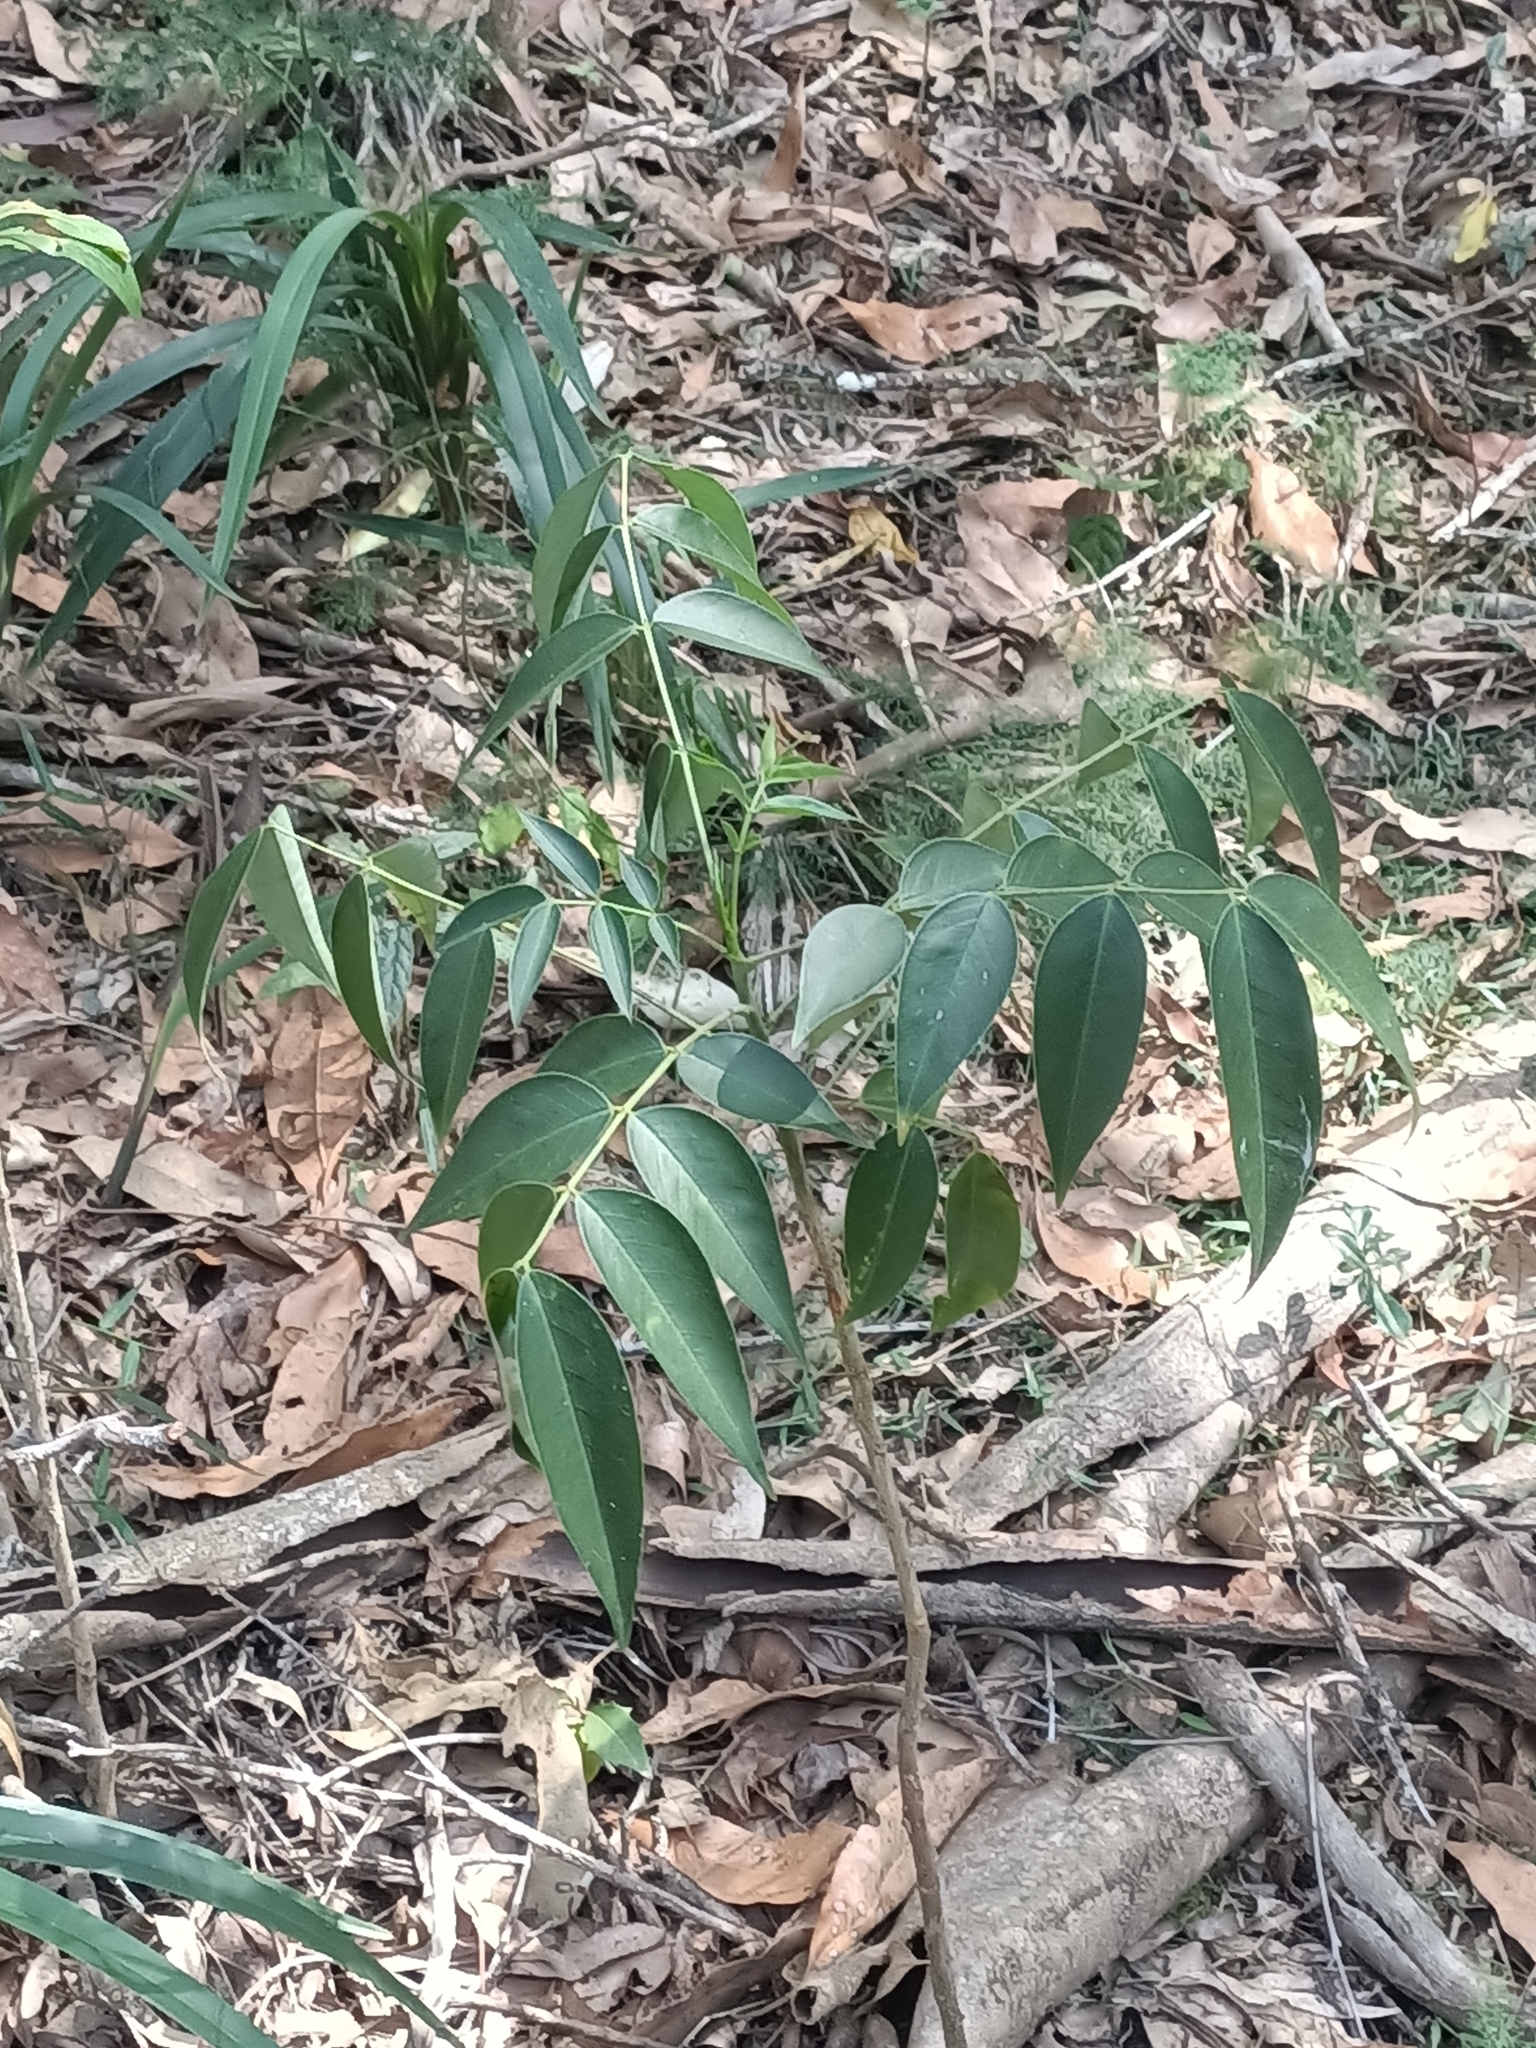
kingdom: Plantae
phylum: Tracheophyta
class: Magnoliopsida
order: Fabales
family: Fabaceae
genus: Senna
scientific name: Senna septemtrionalis
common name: Arsenic bush
